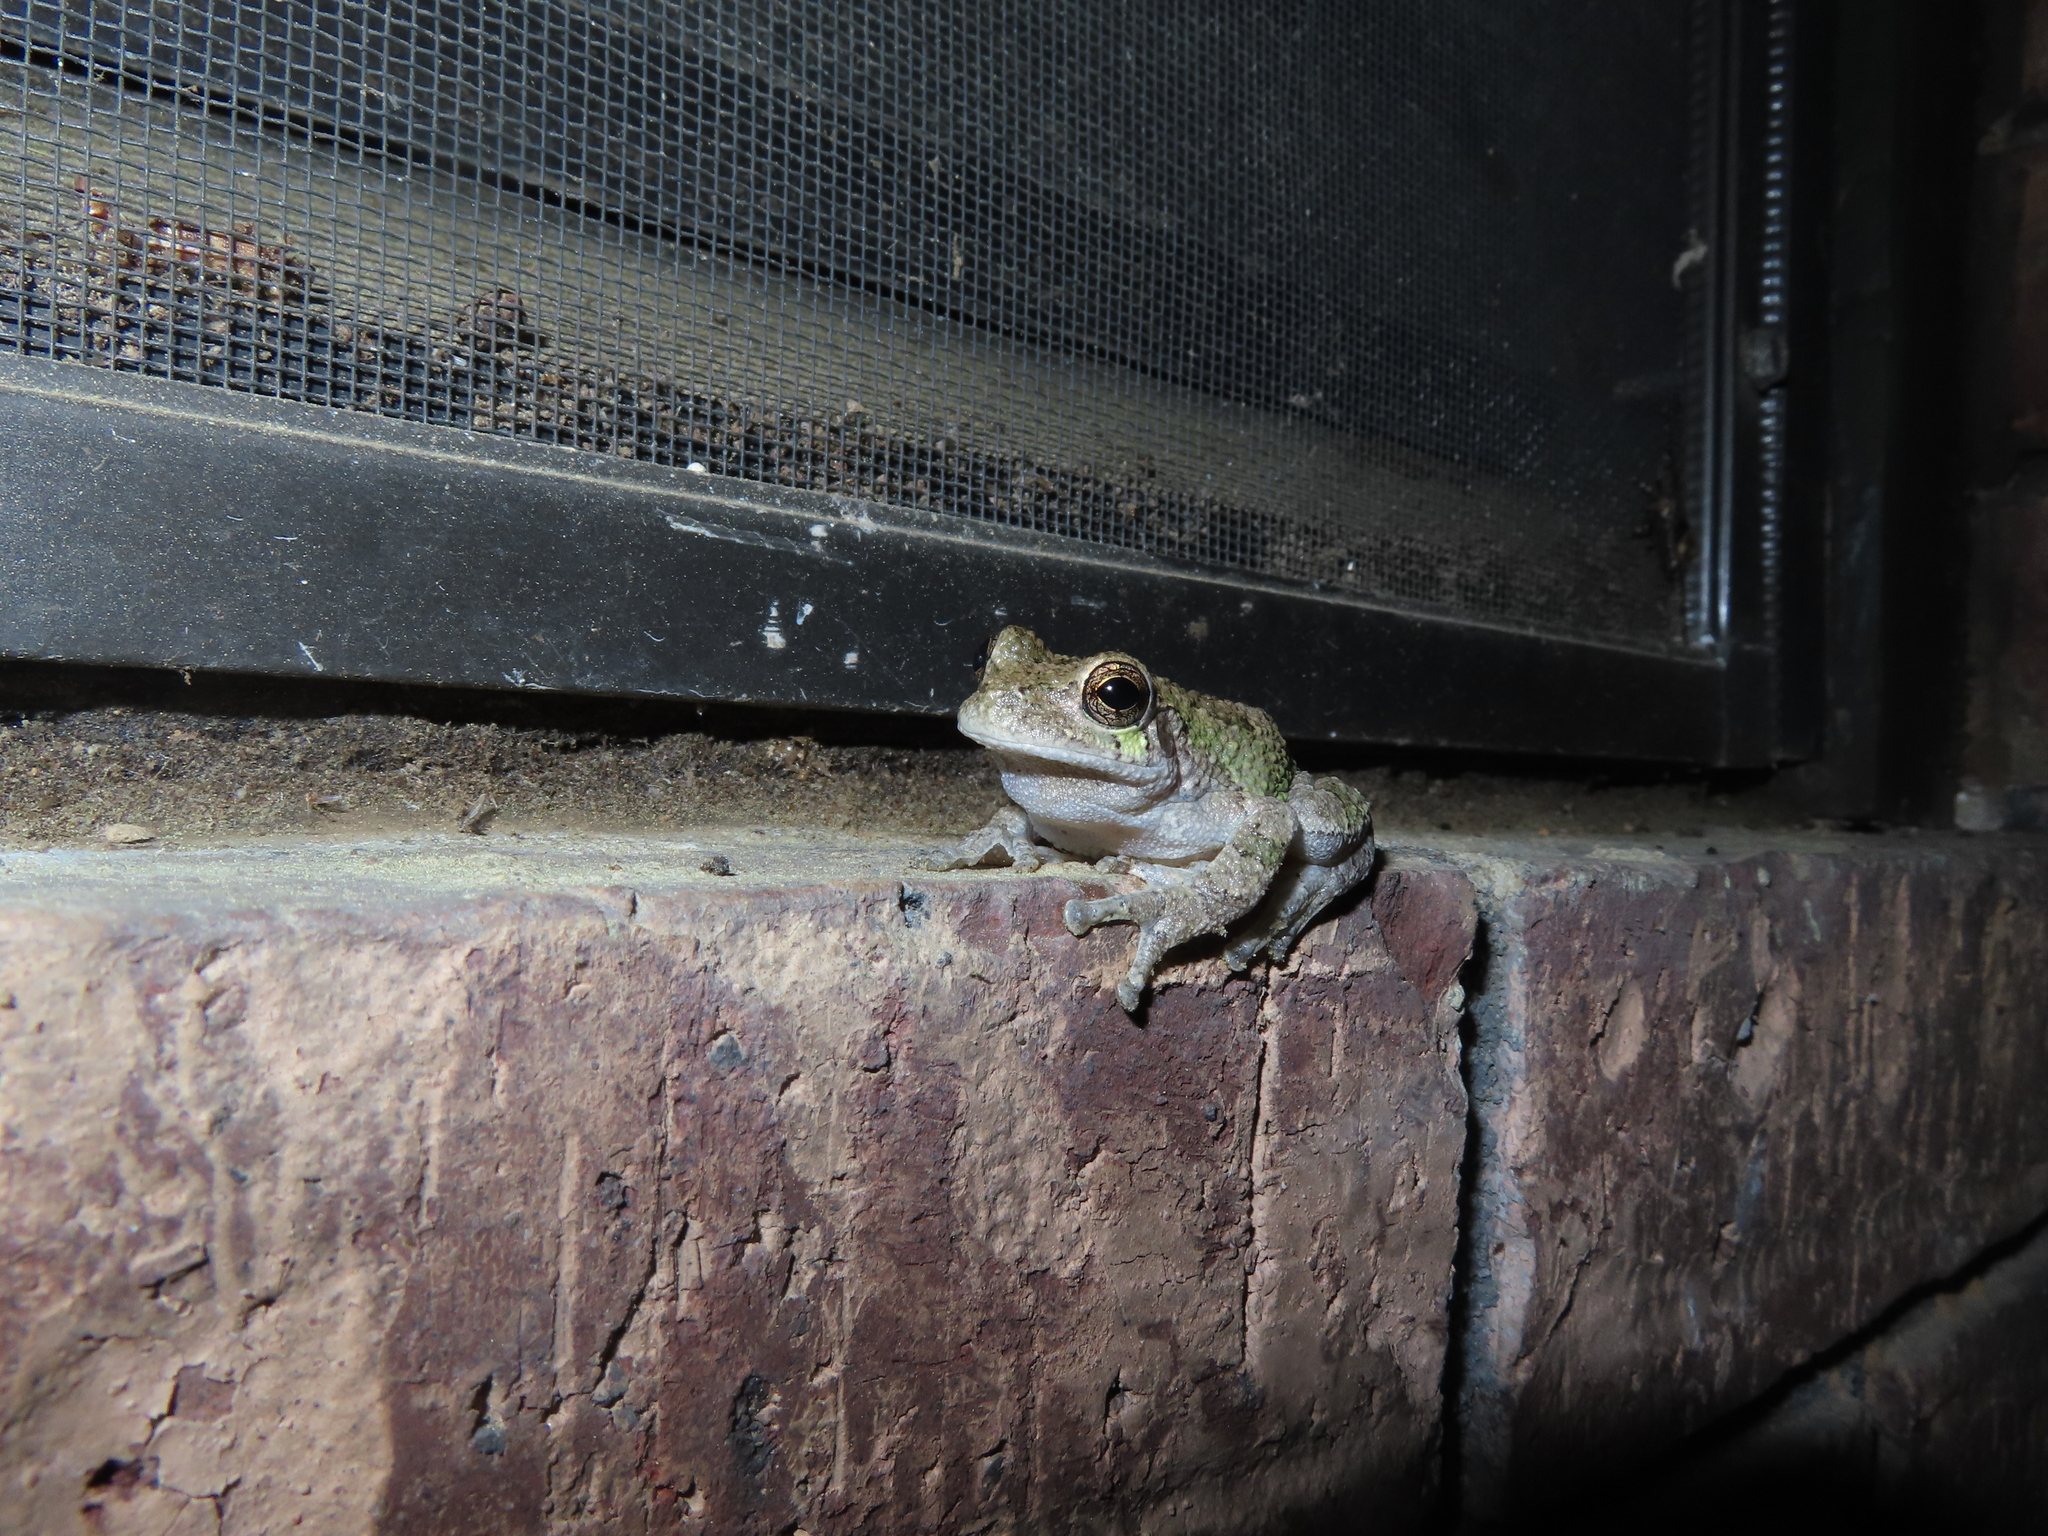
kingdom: Animalia
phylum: Chordata
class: Amphibia
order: Anura
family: Hylidae
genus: Dryophytes
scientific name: Dryophytes chrysoscelis
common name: Cope's gray treefrog
